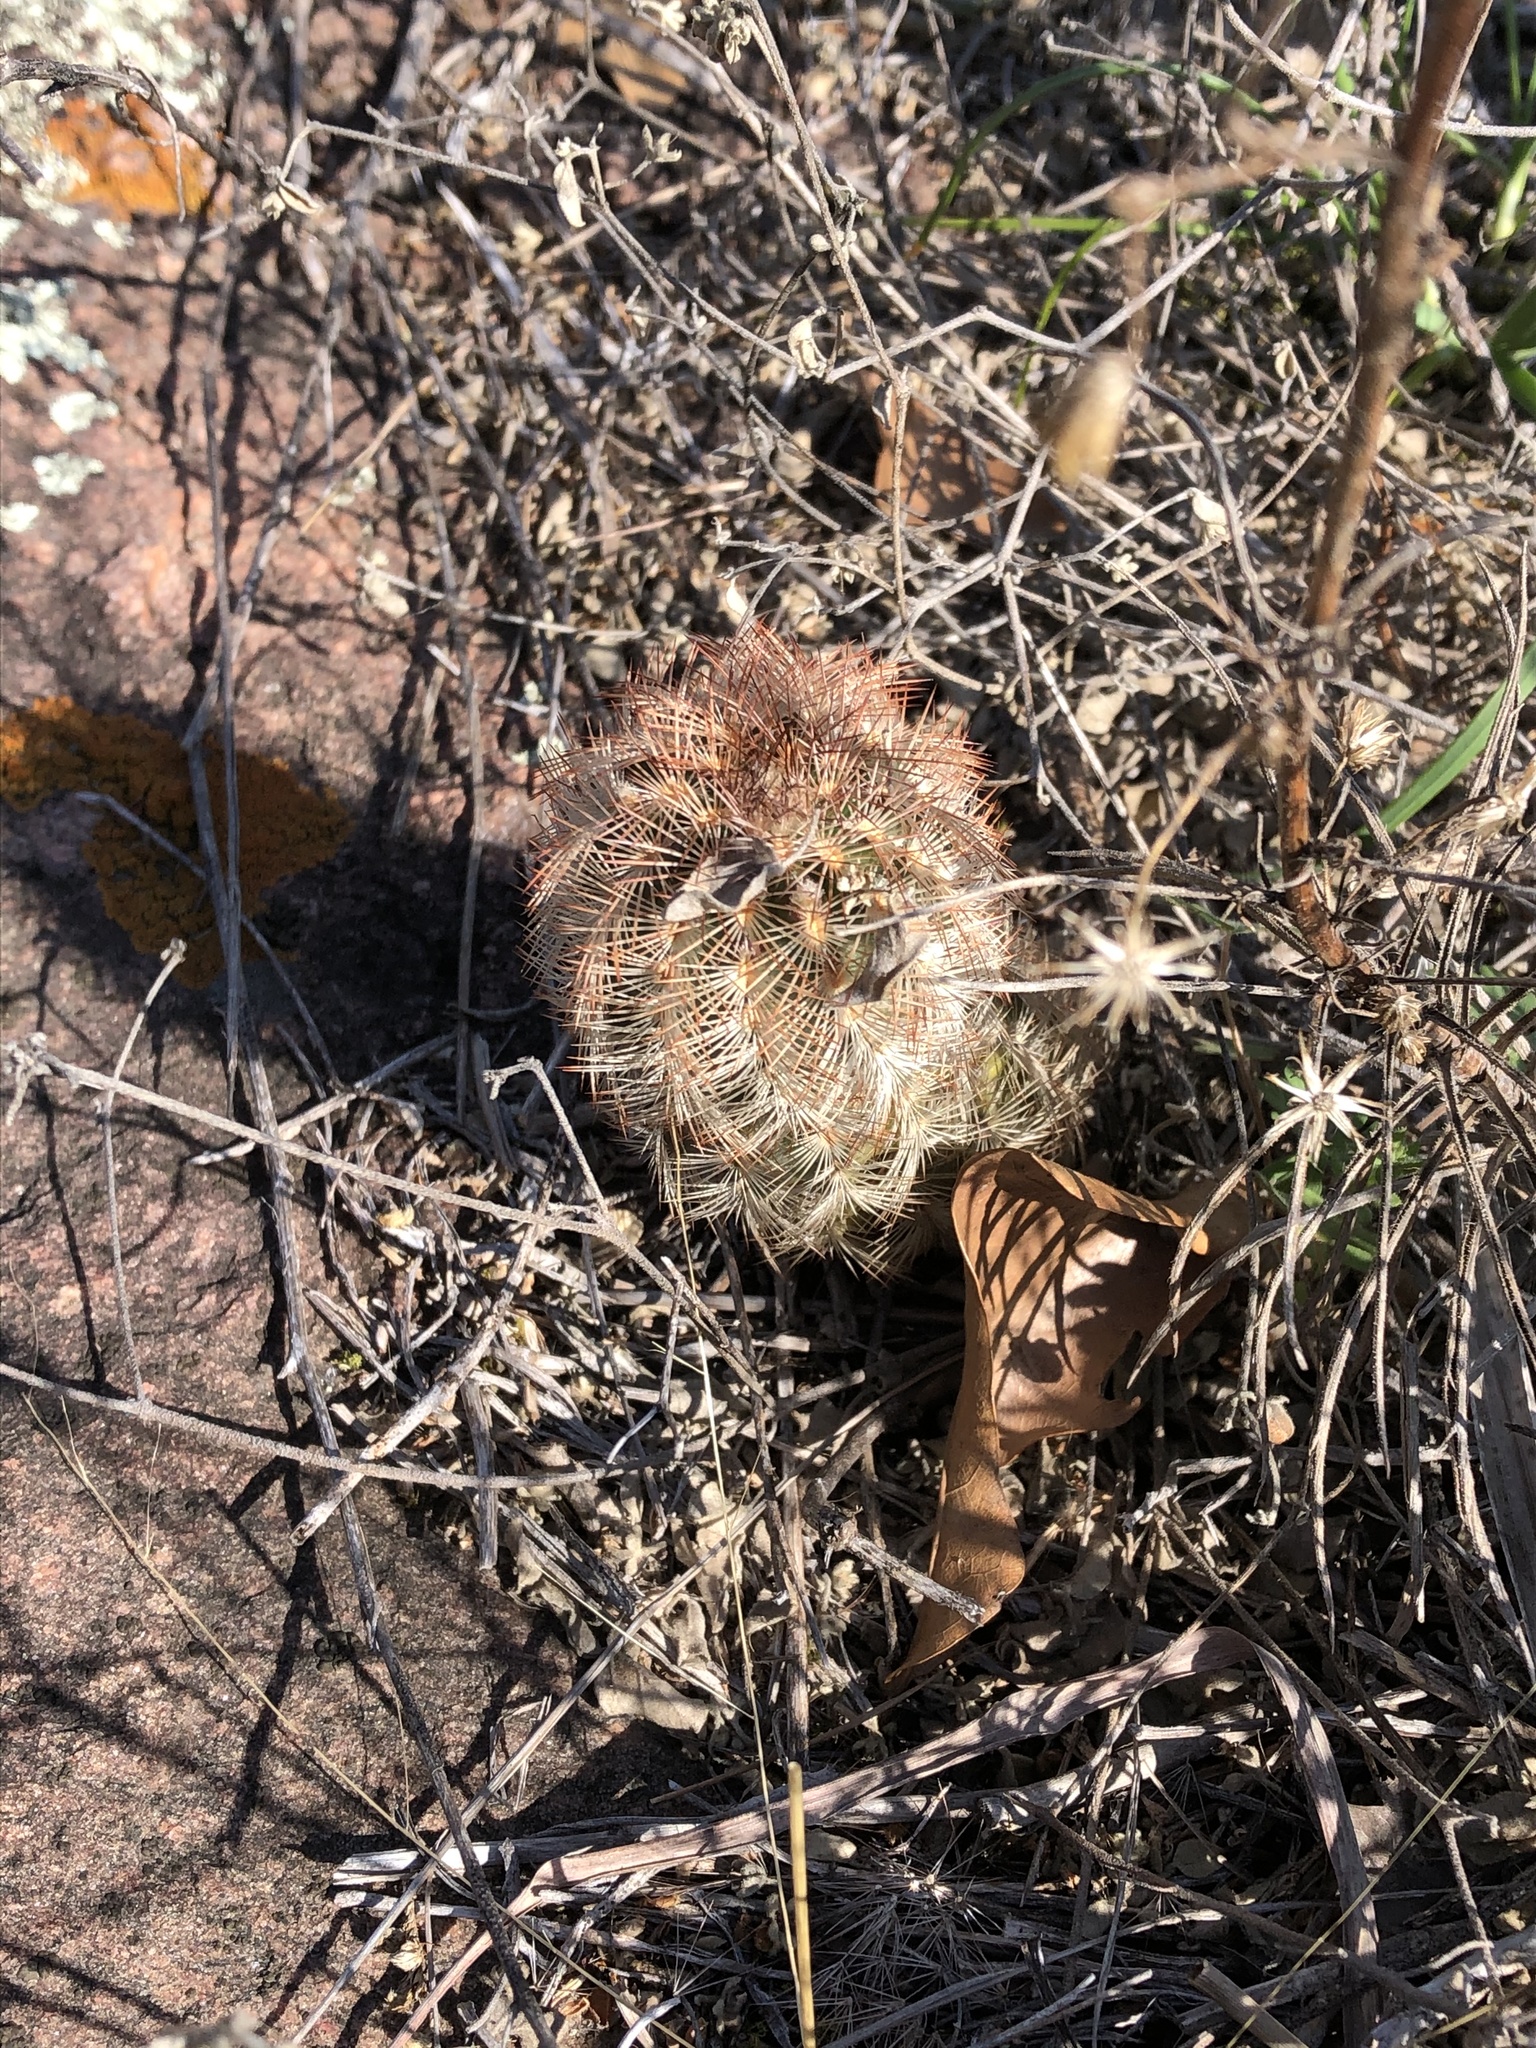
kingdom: Plantae
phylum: Tracheophyta
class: Magnoliopsida
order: Caryophyllales
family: Cactaceae
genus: Echinocereus
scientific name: Echinocereus reichenbachii
